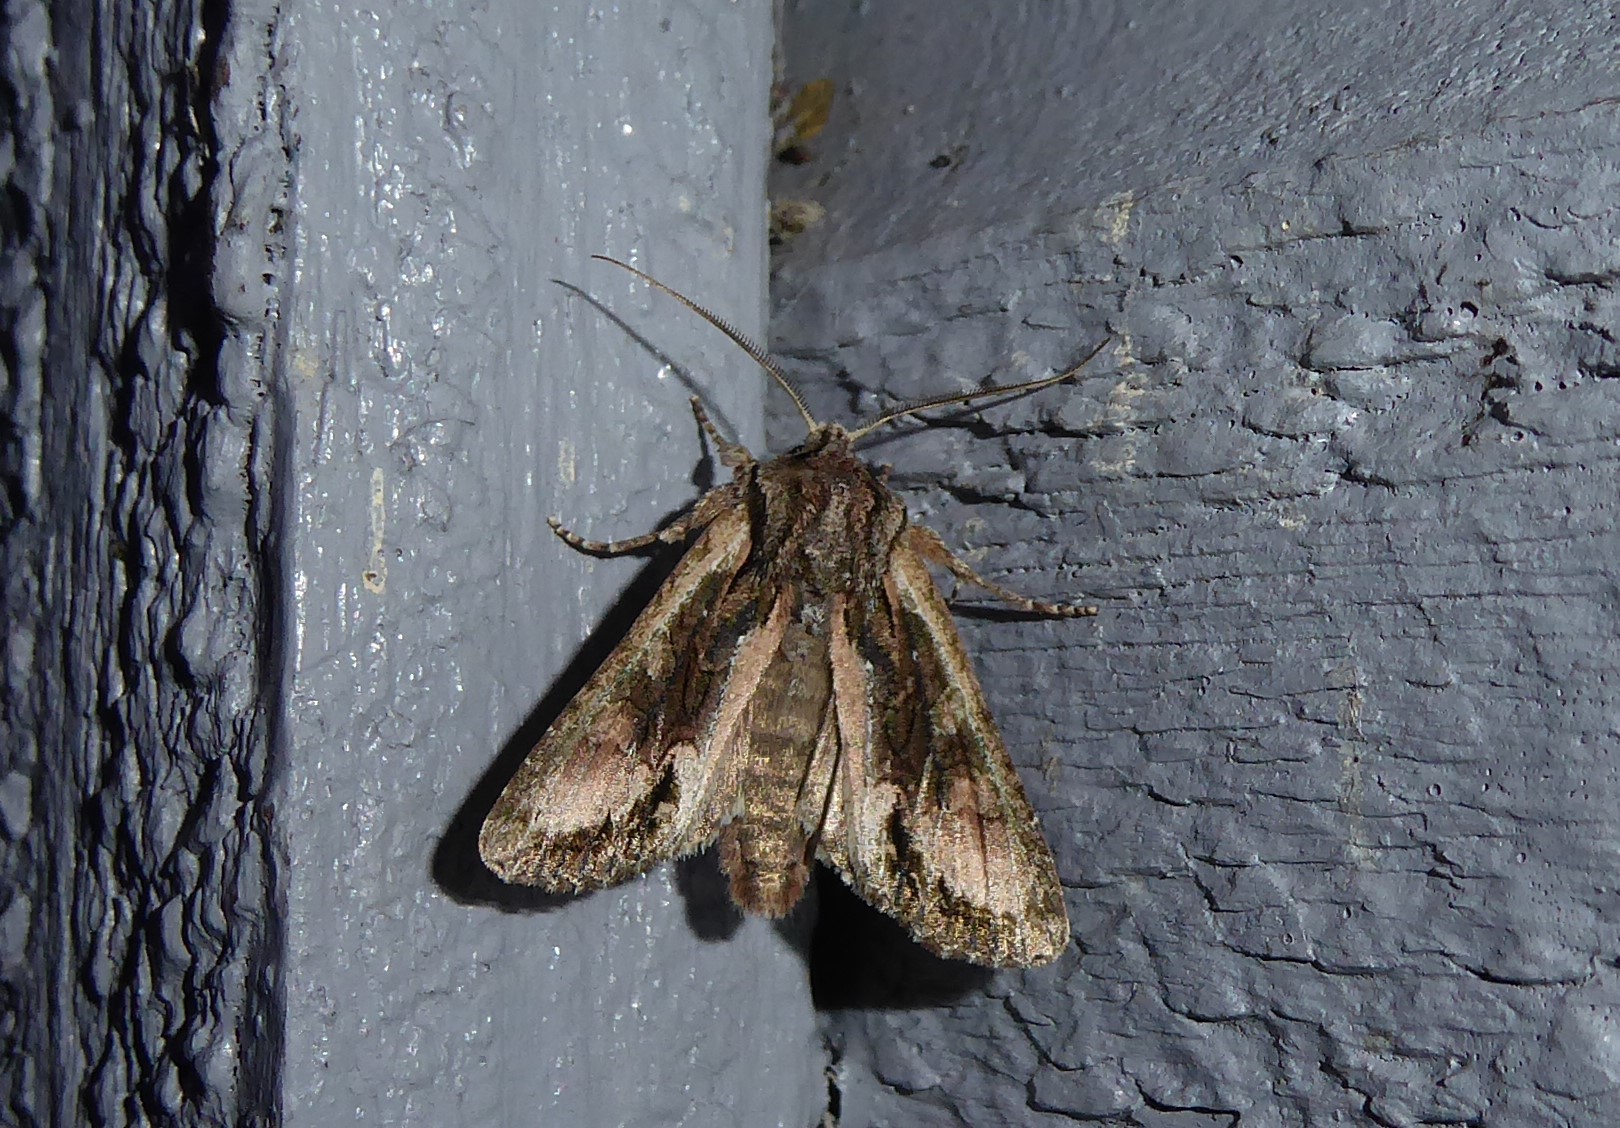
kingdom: Animalia
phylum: Arthropoda
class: Insecta
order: Lepidoptera
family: Noctuidae
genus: Ichneutica
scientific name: Ichneutica mutans
